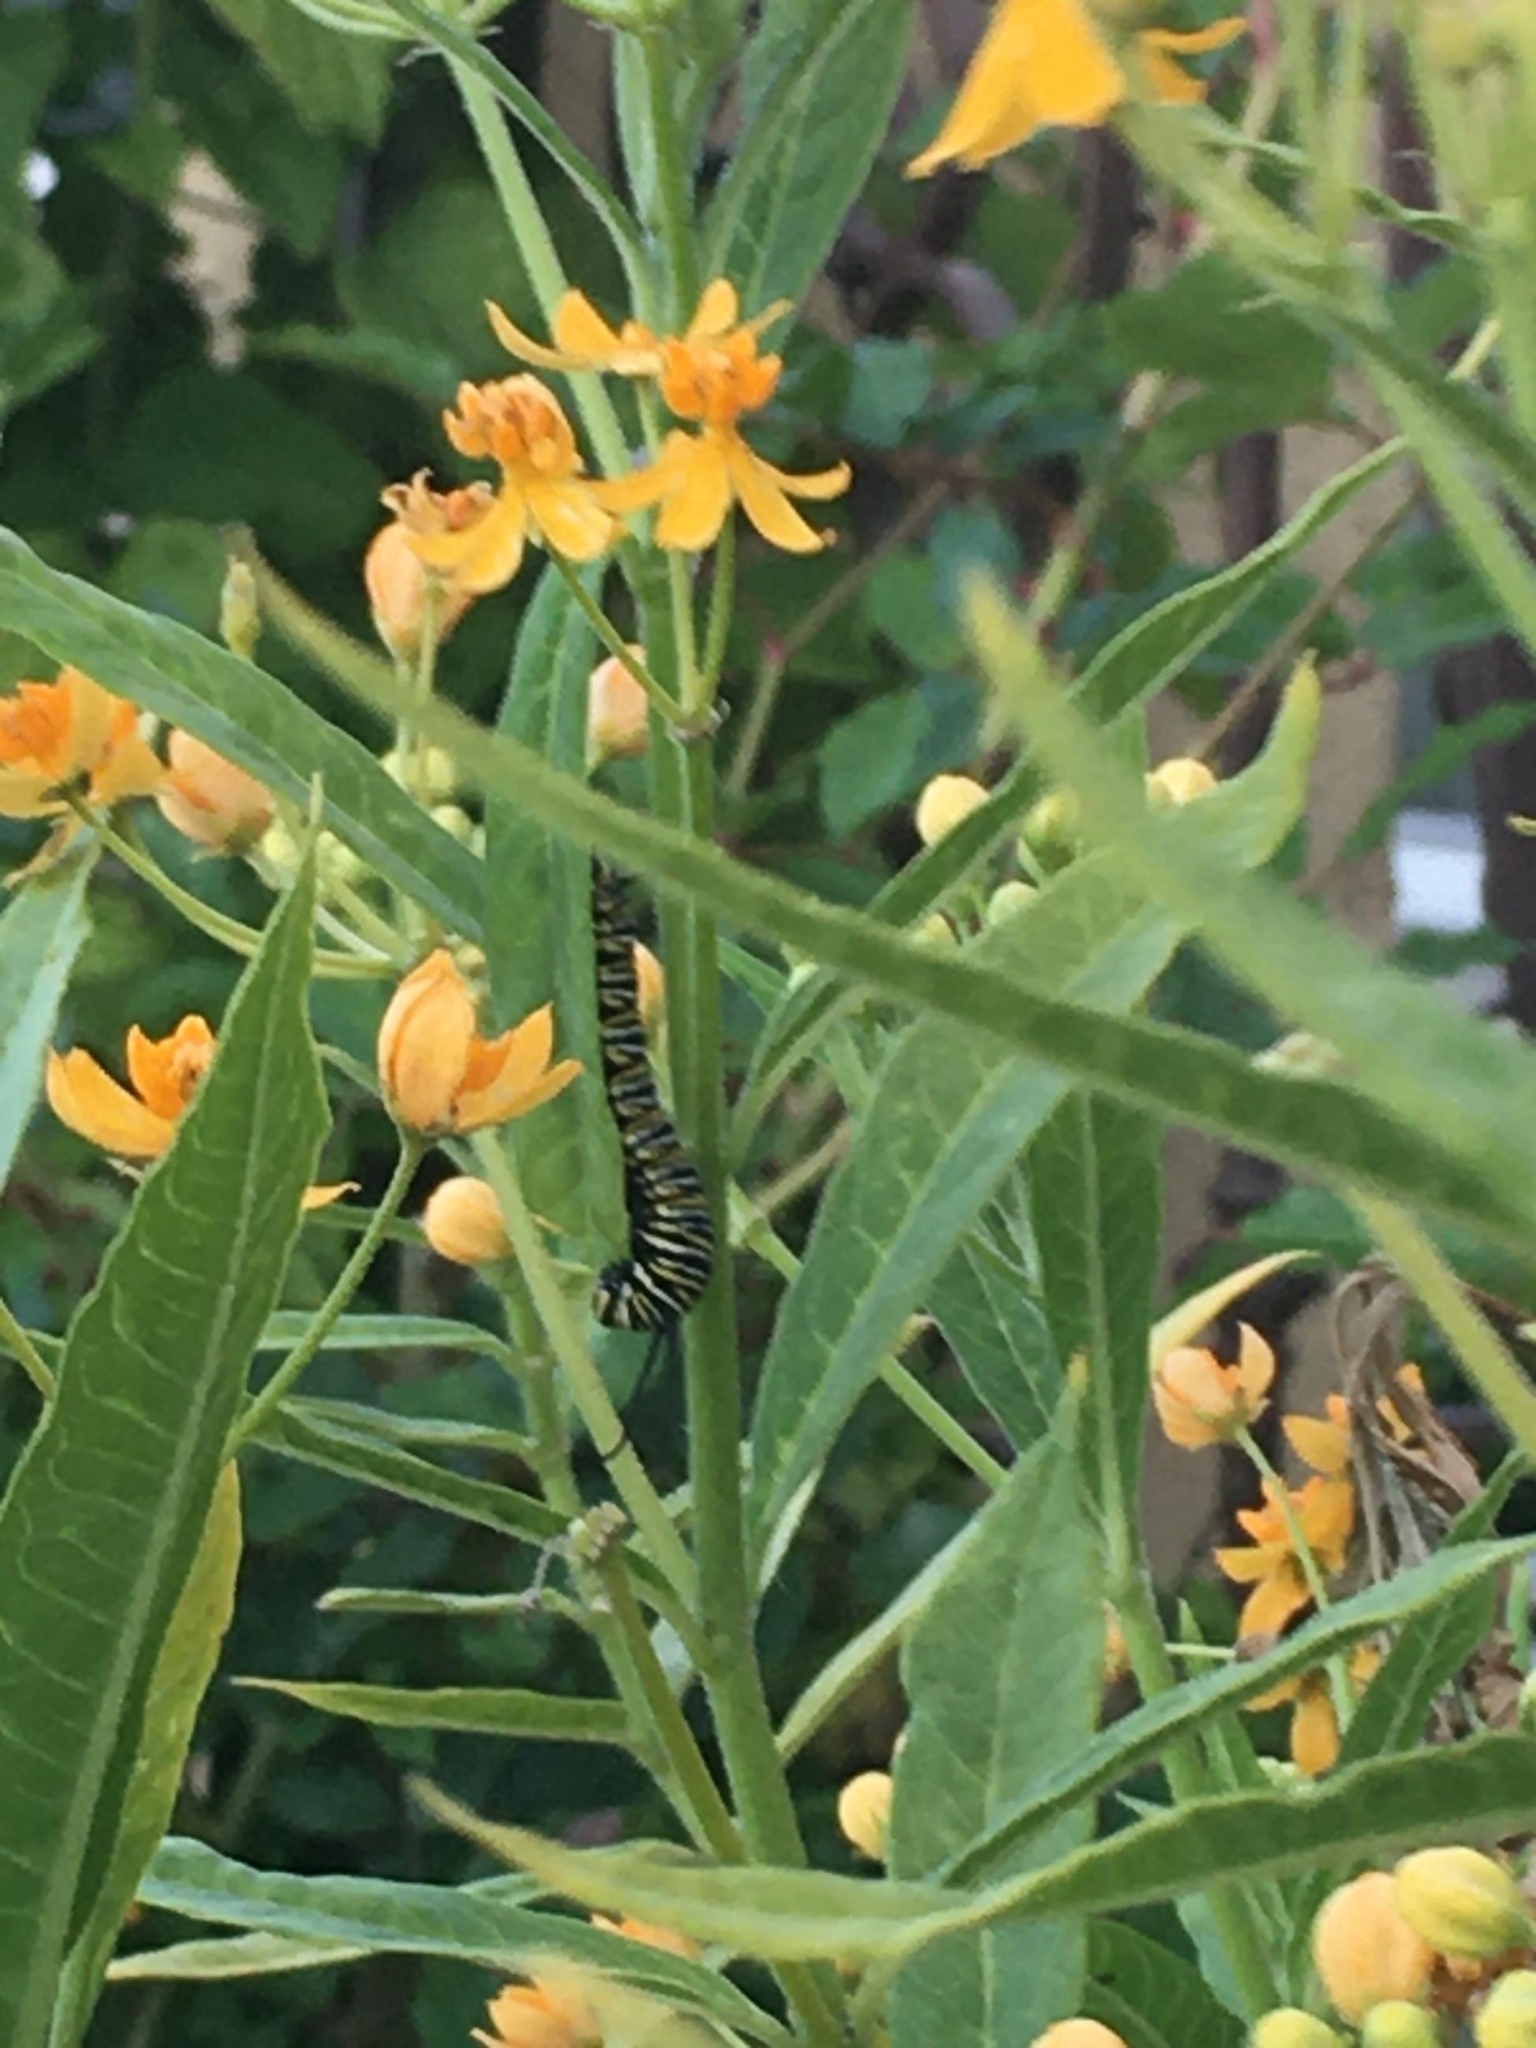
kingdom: Animalia
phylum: Arthropoda
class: Insecta
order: Lepidoptera
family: Nymphalidae
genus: Danaus
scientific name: Danaus plexippus
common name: Monarch
